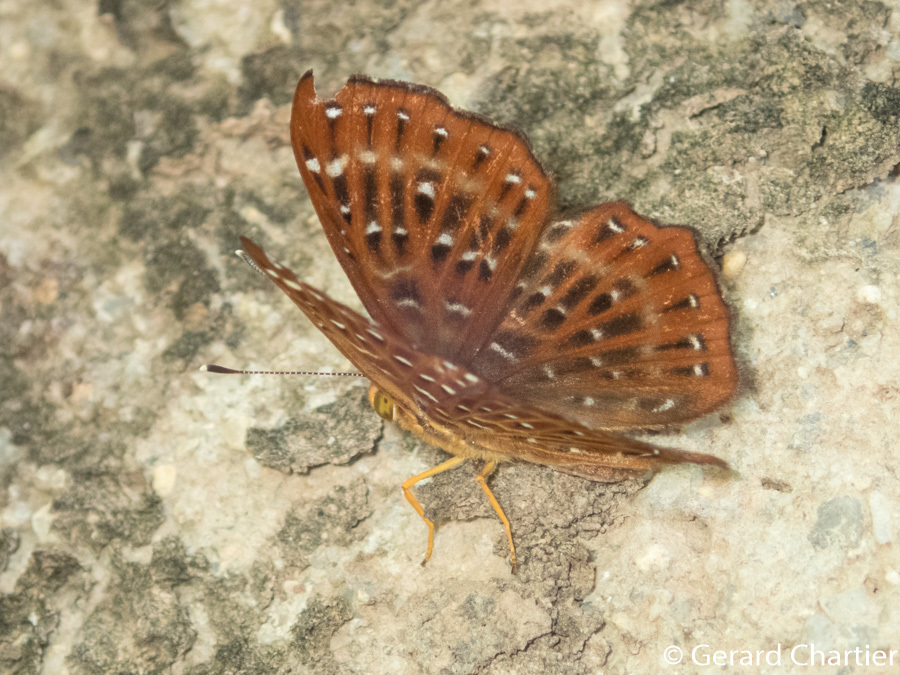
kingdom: Animalia
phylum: Arthropoda
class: Insecta
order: Lepidoptera
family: Riodinidae
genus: Zemeros
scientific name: Zemeros flegyas
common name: Punchinello
